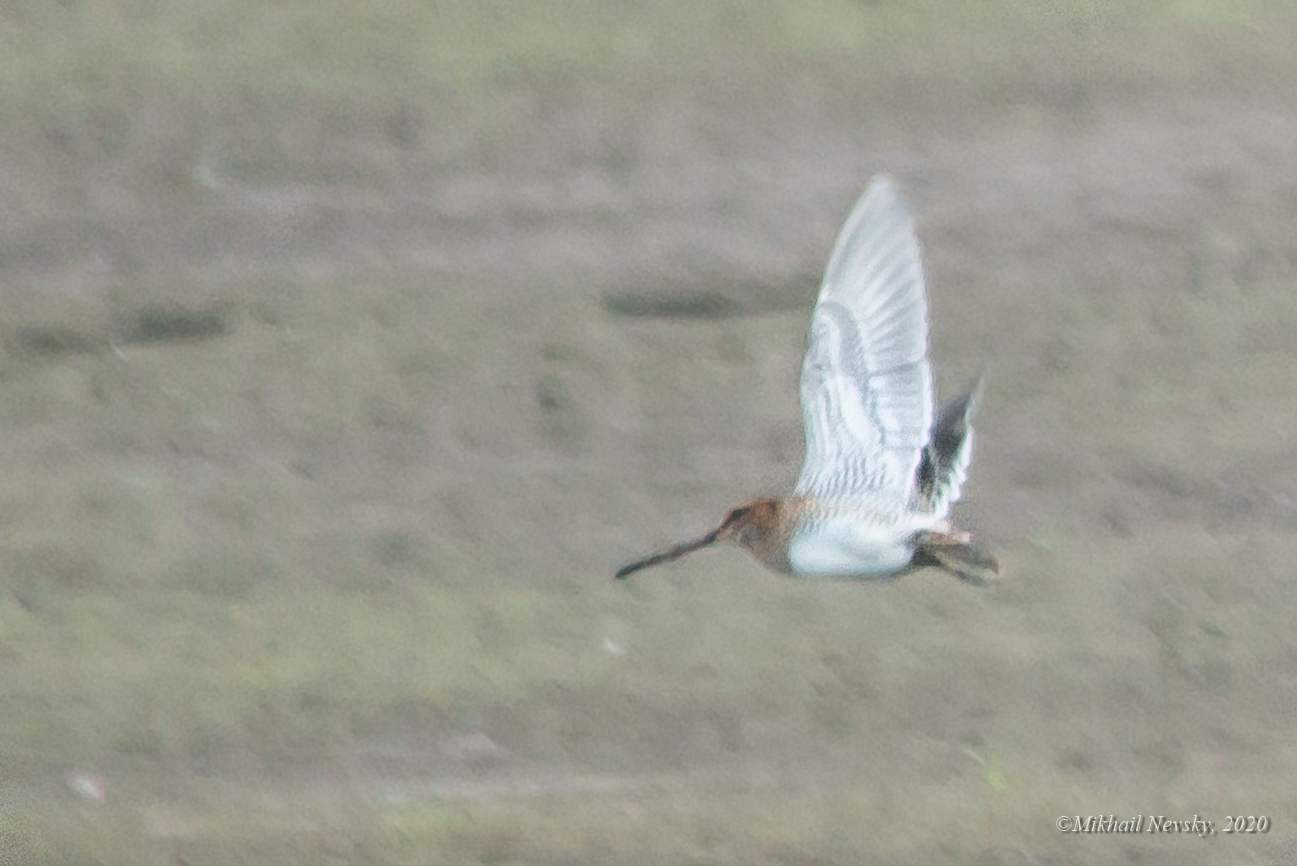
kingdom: Animalia
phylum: Chordata
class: Aves
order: Charadriiformes
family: Scolopacidae
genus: Gallinago
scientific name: Gallinago gallinago
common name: Common snipe
